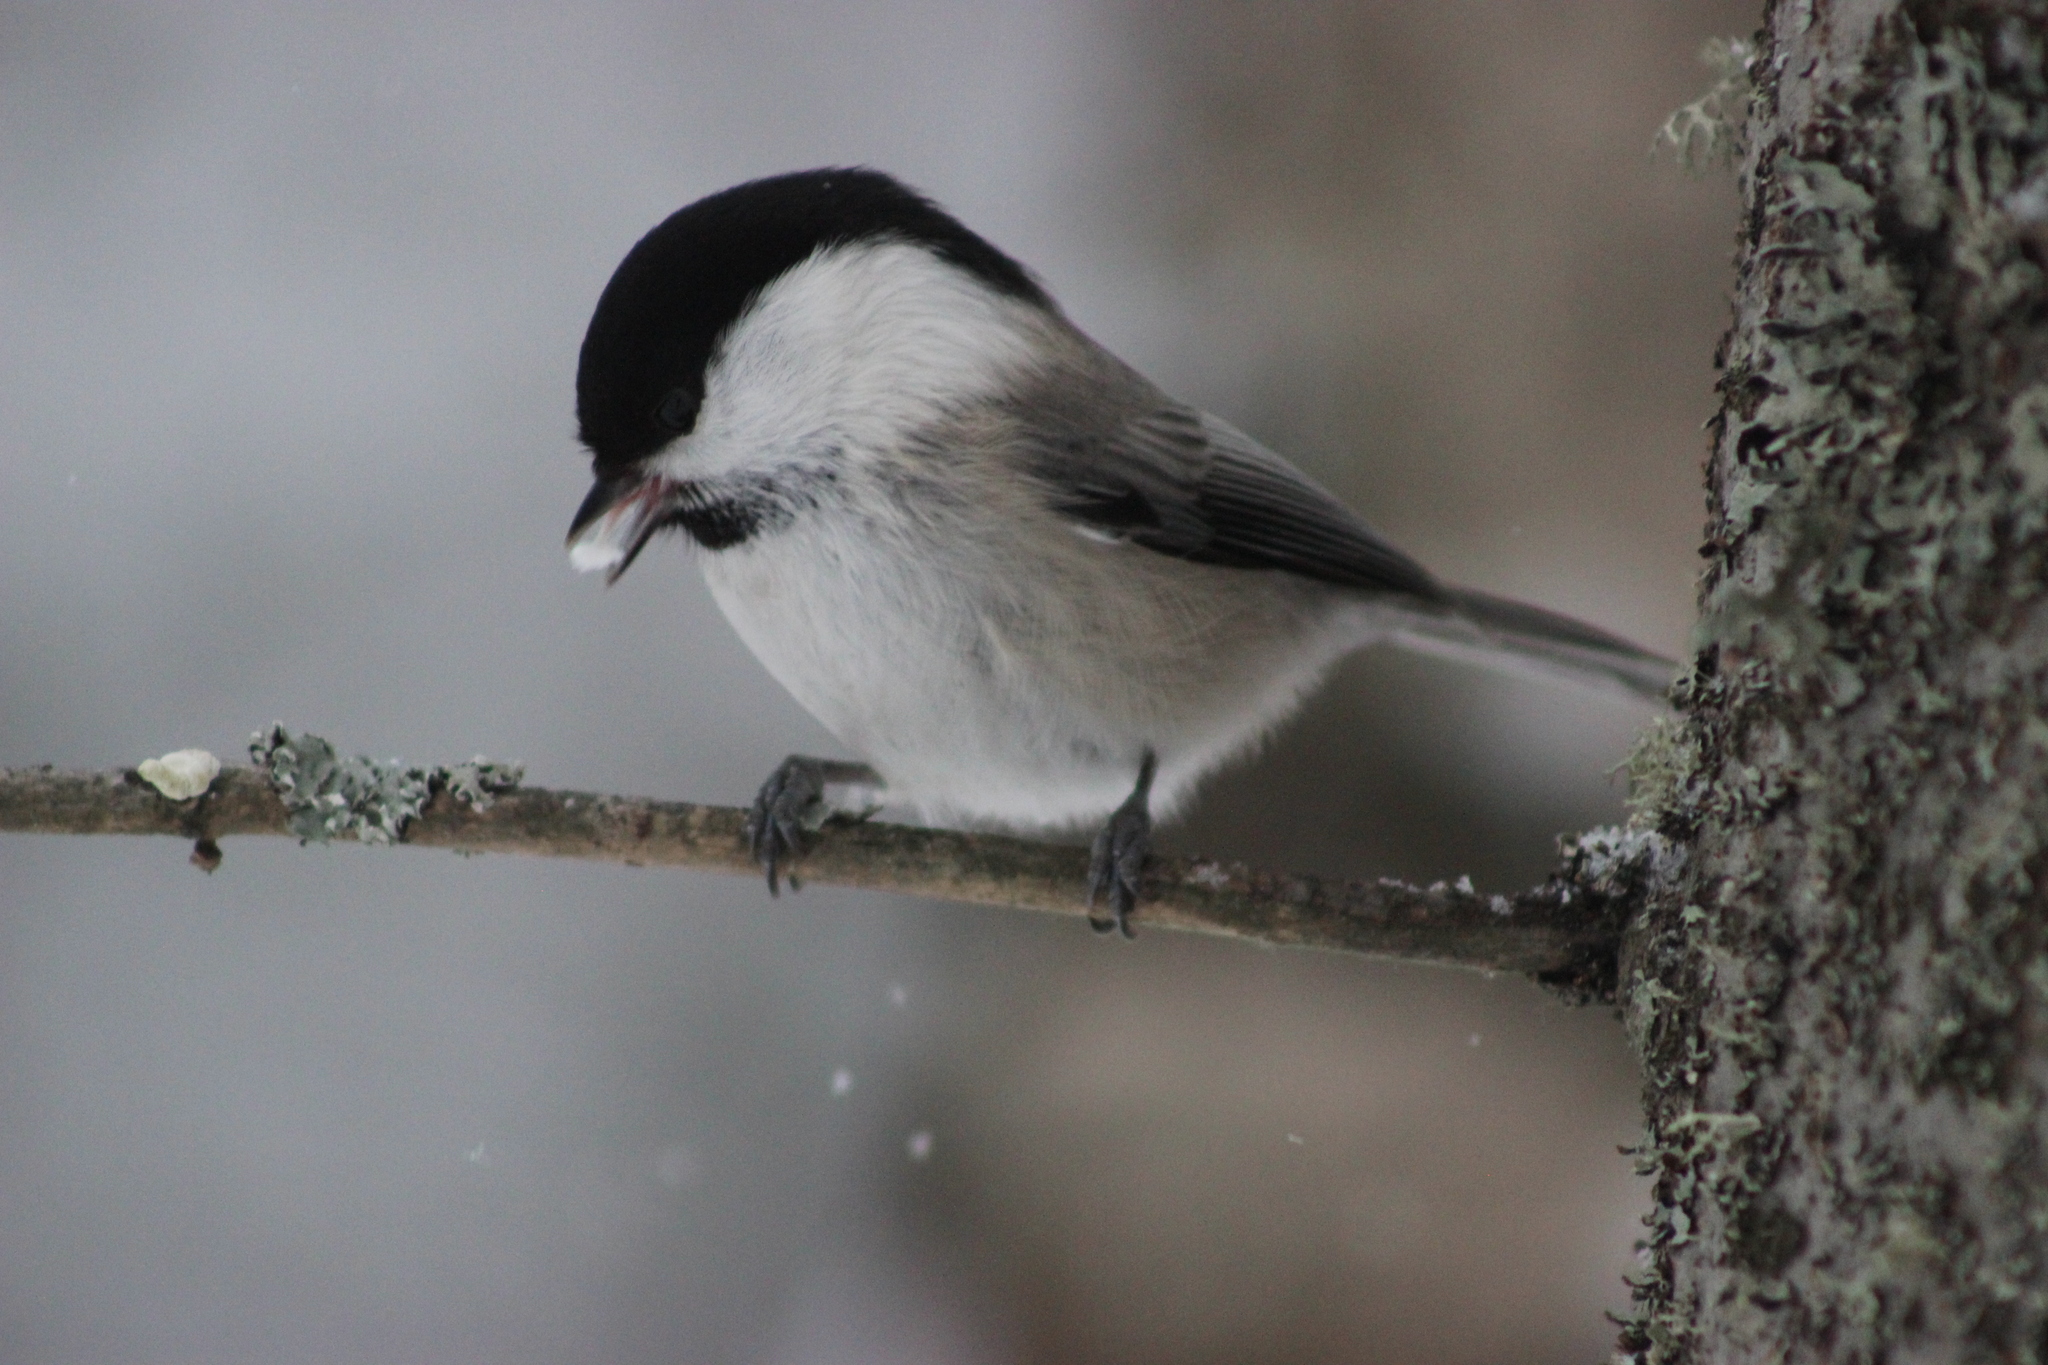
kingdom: Animalia
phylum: Chordata
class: Aves
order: Passeriformes
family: Paridae
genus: Poecile
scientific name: Poecile montanus
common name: Willow tit
